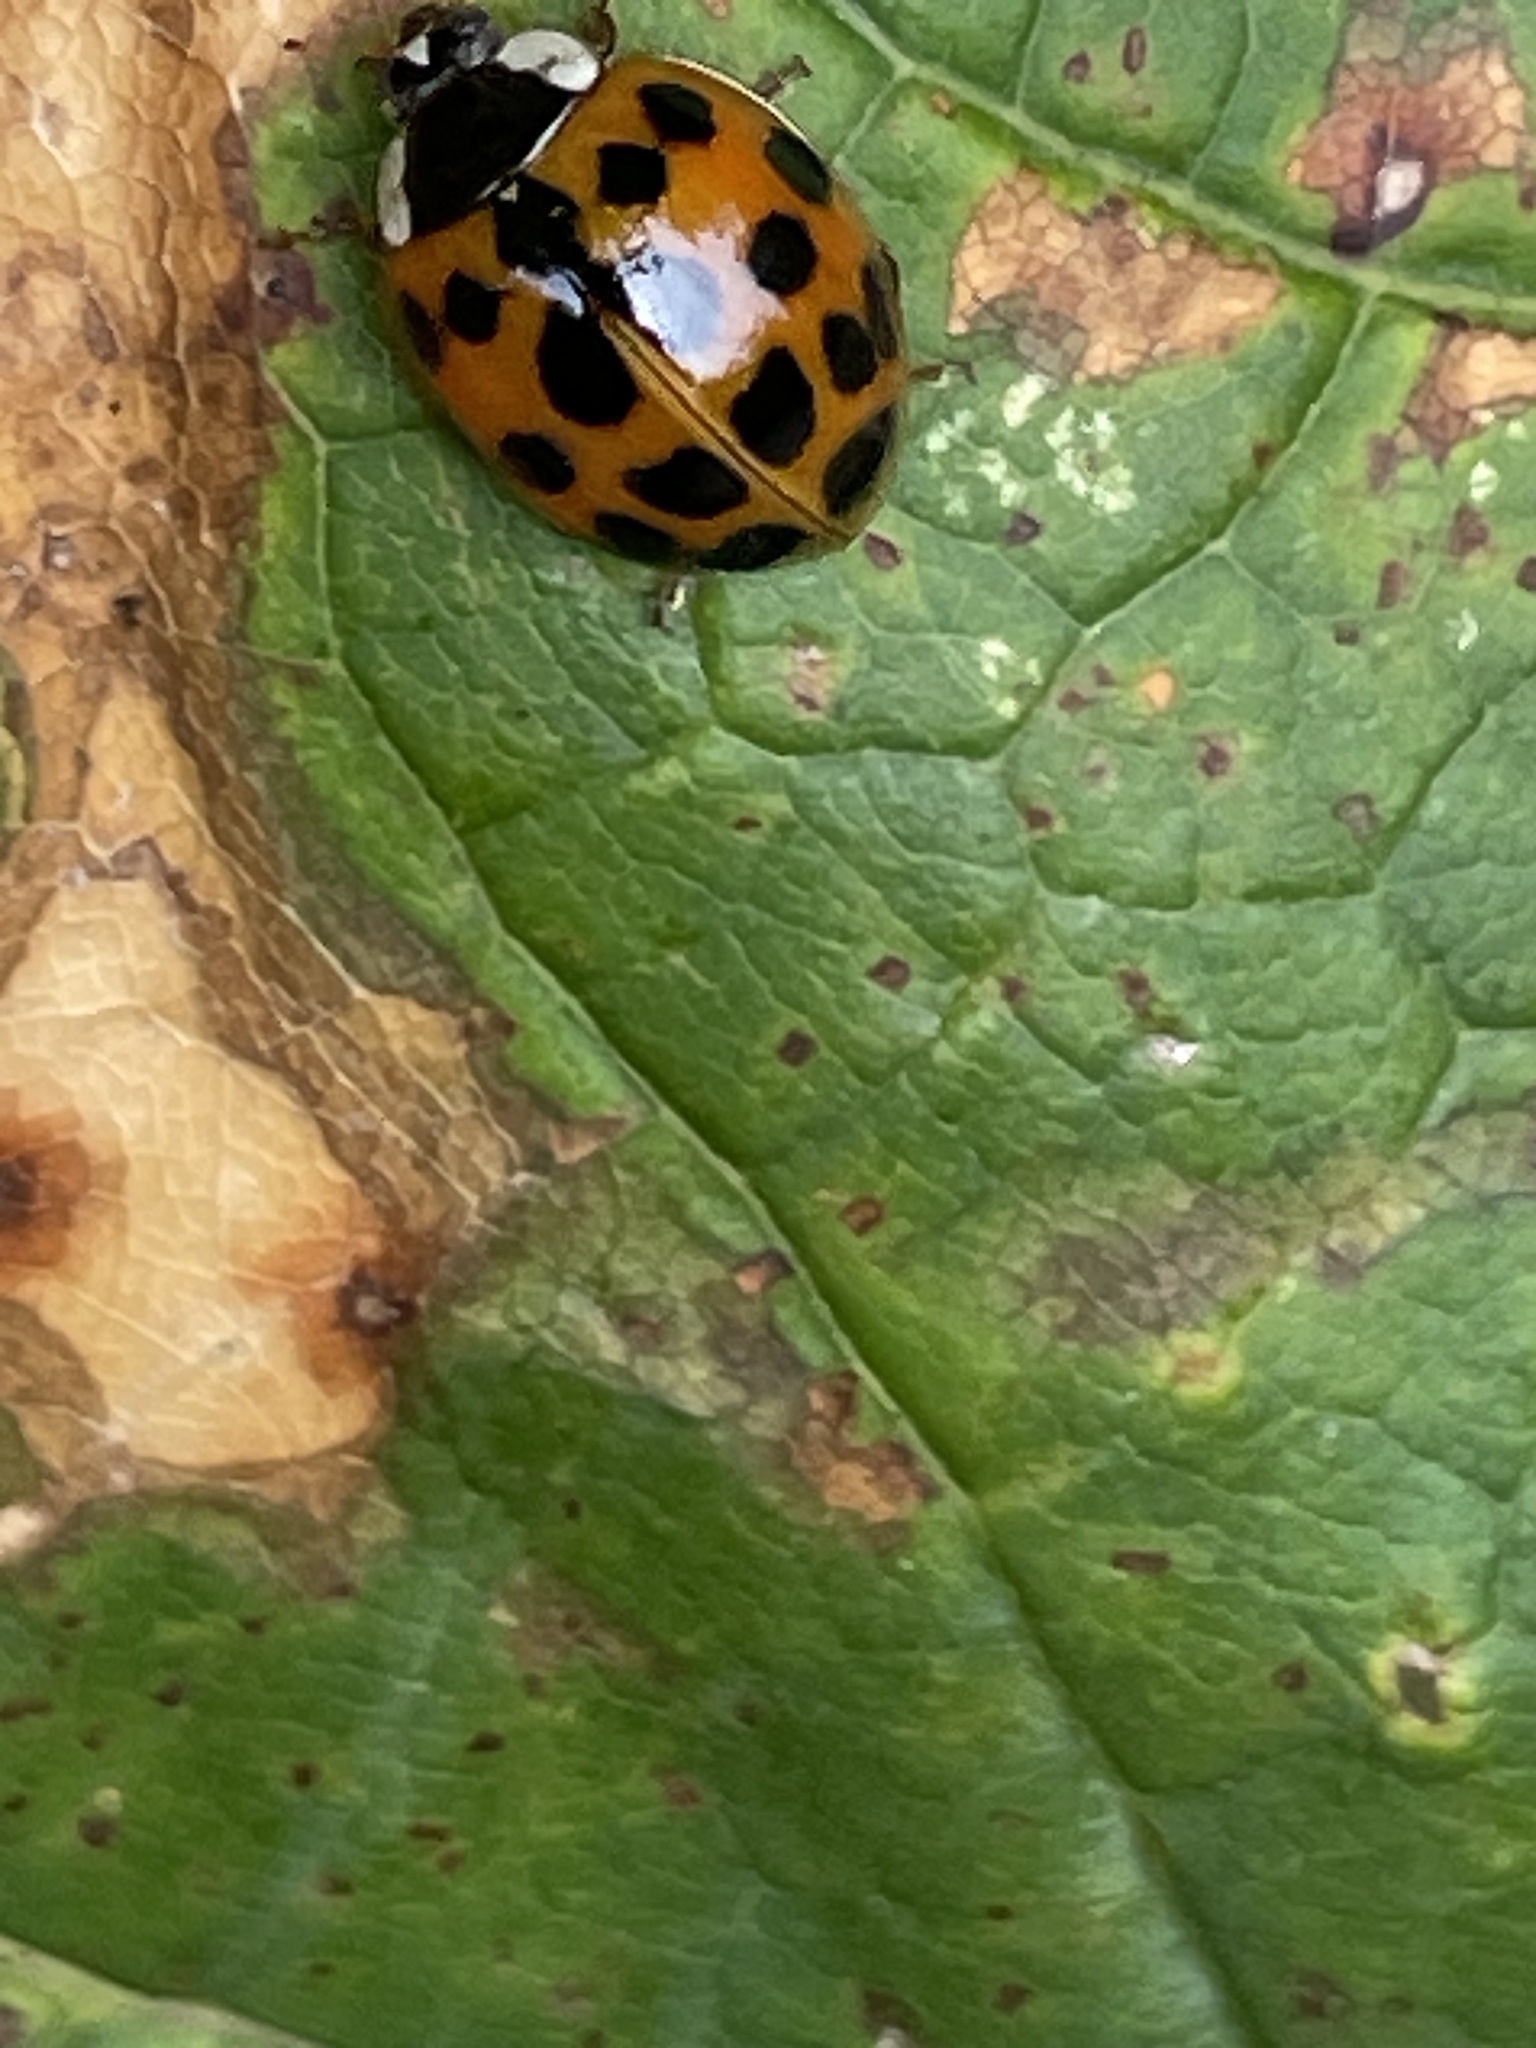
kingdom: Animalia
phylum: Arthropoda
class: Insecta
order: Coleoptera
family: Coccinellidae
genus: Harmonia
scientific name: Harmonia axyridis
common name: Harlequin ladybird
